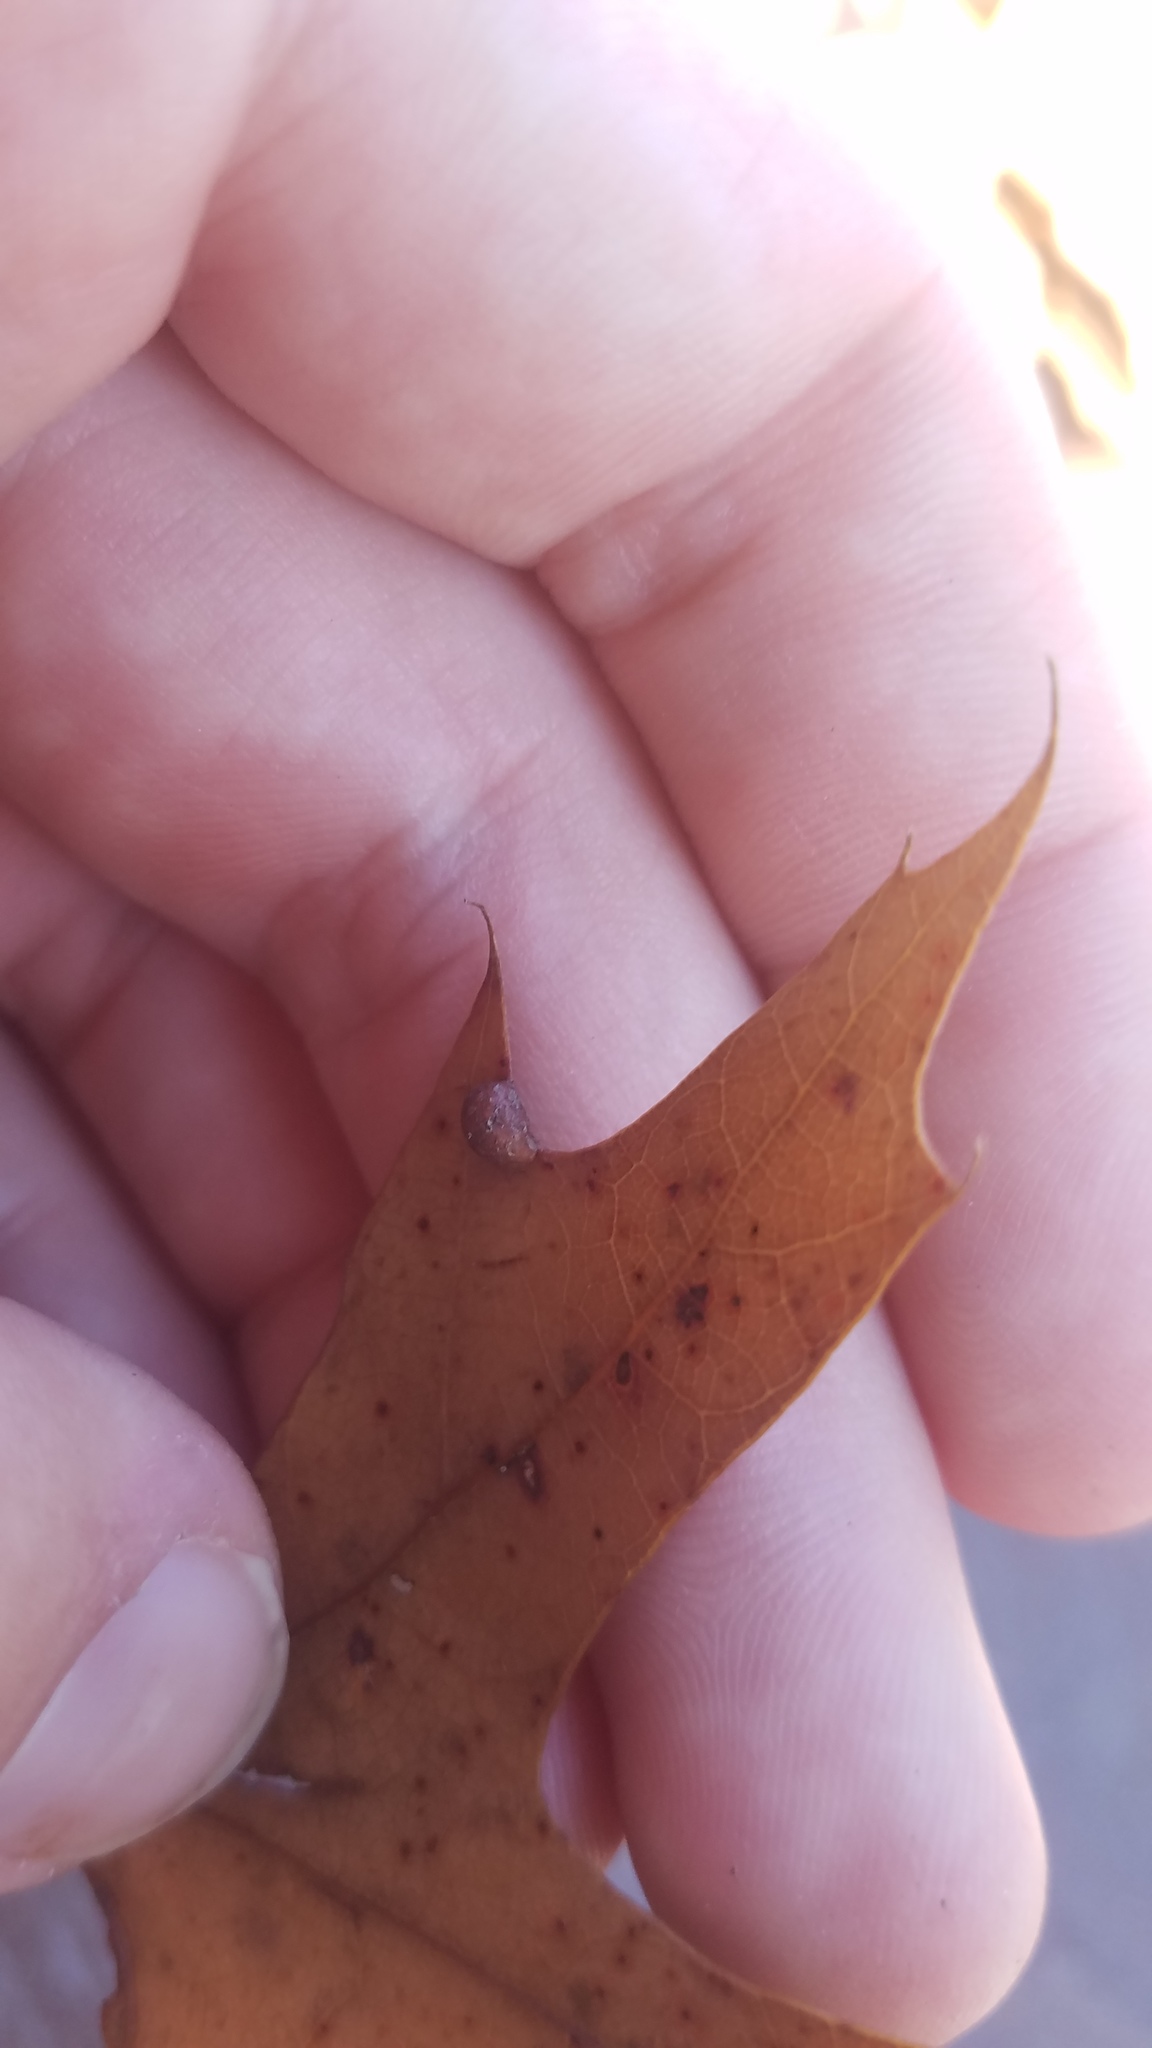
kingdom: Animalia
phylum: Arthropoda
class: Insecta
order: Diptera
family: Cecidomyiidae
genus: Polystepha
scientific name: Polystepha pilulae
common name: Oak leaf gall midge
